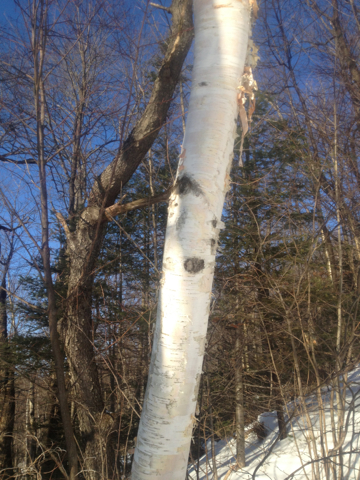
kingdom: Plantae
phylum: Tracheophyta
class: Magnoliopsida
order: Fagales
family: Betulaceae
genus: Betula
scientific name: Betula papyrifera
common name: Paper birch
